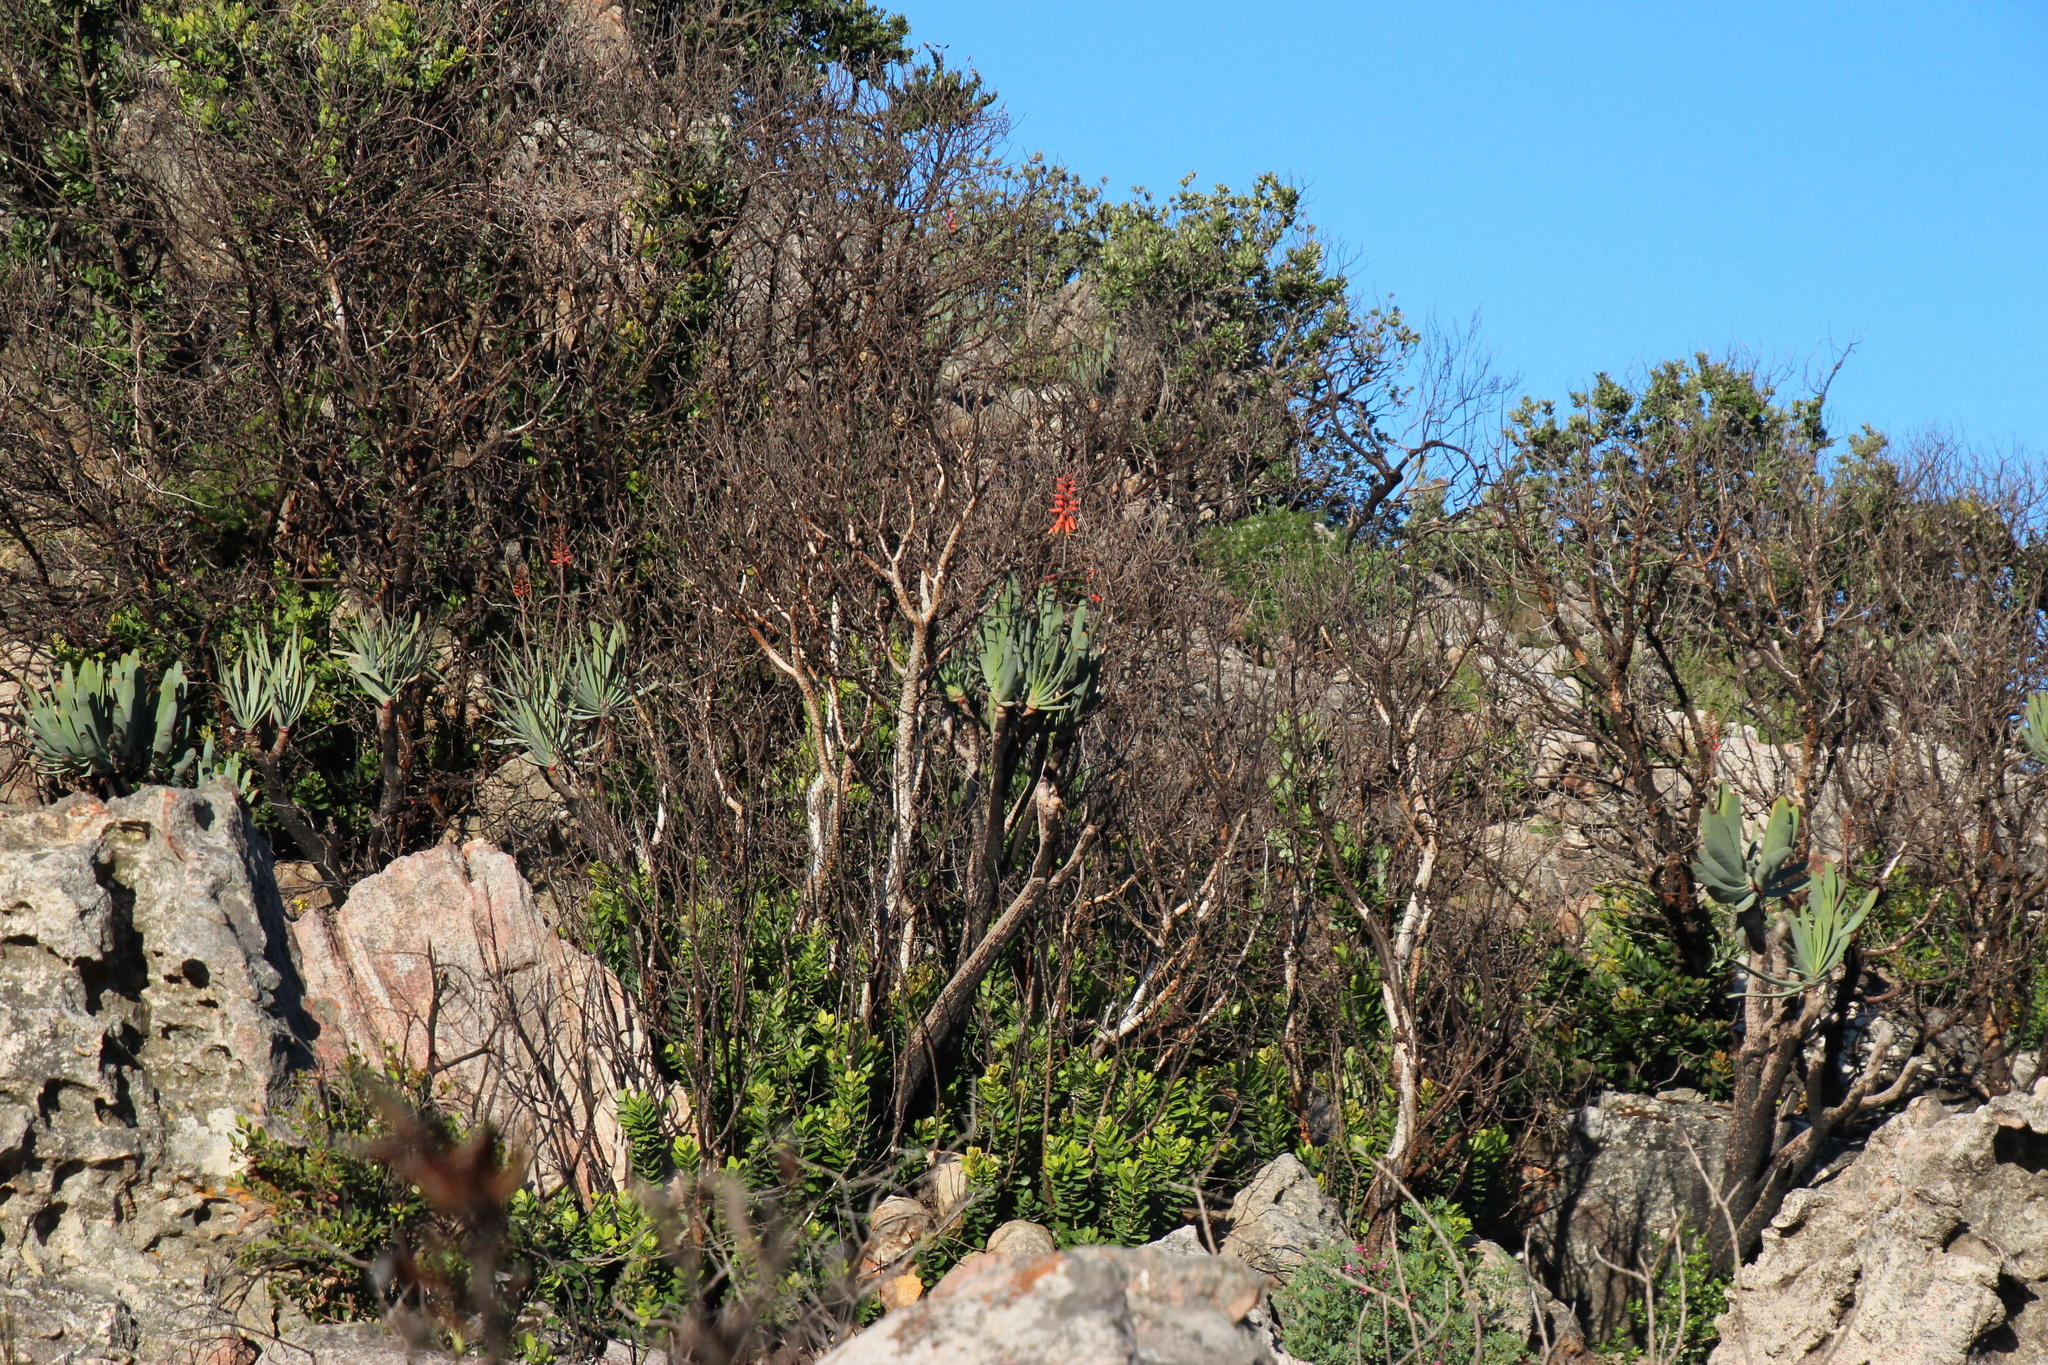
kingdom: Plantae
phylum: Tracheophyta
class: Liliopsida
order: Asparagales
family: Asphodelaceae
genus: Kumara
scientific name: Kumara plicatilis
